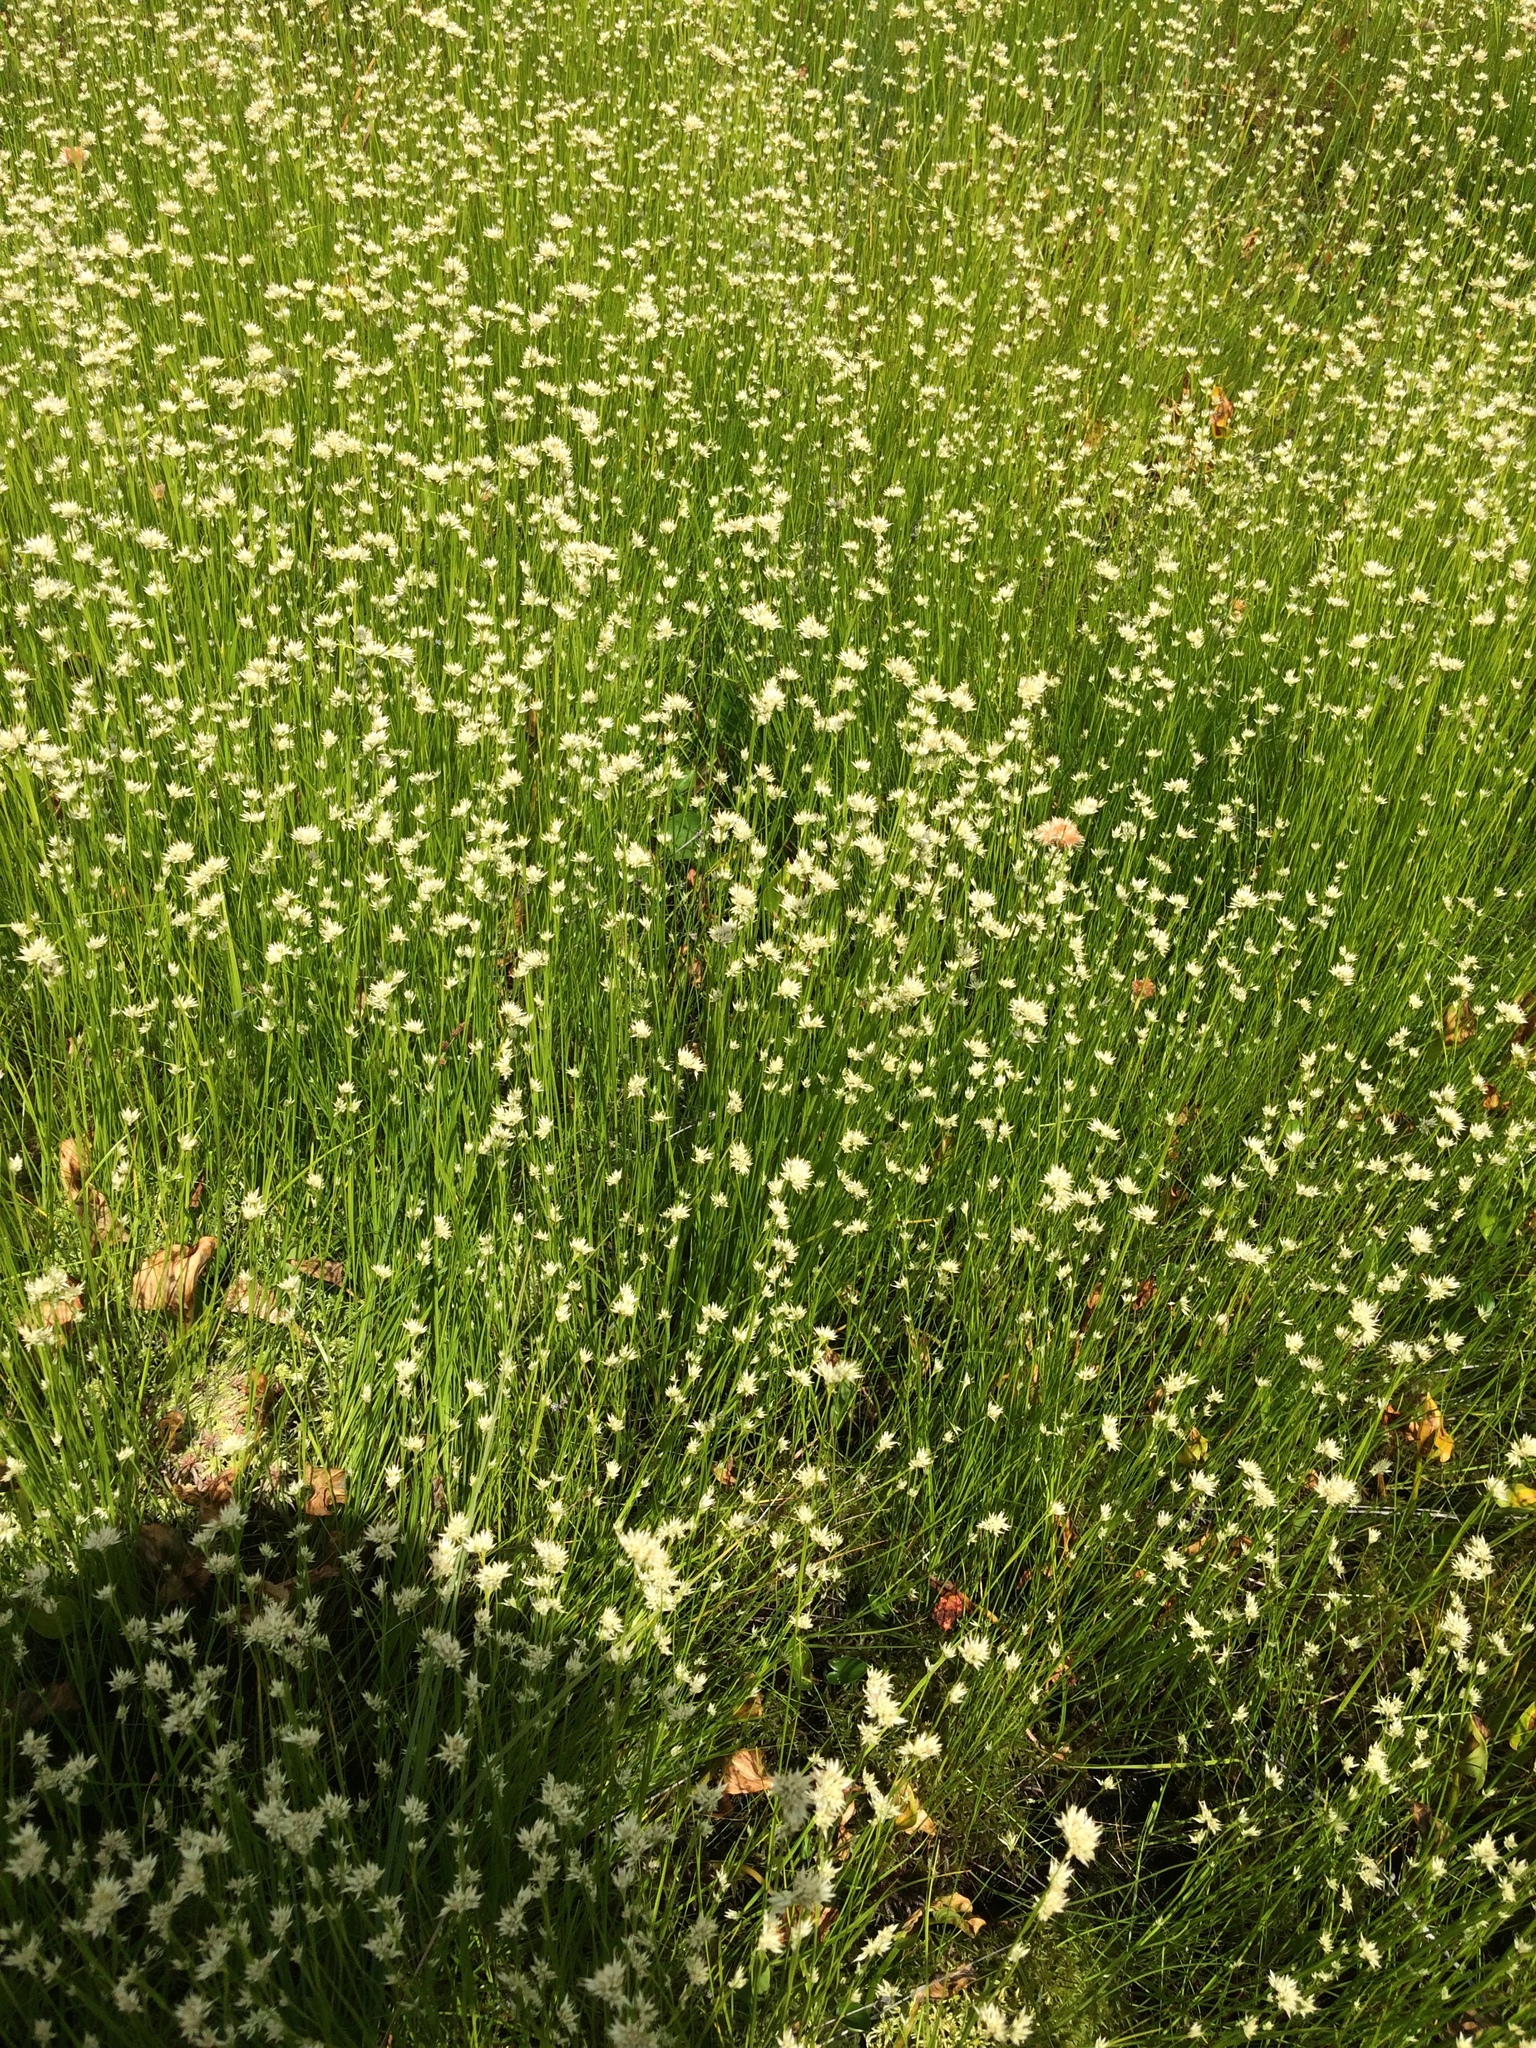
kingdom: Plantae
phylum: Tracheophyta
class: Liliopsida
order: Poales
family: Cyperaceae
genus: Rhynchospora
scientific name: Rhynchospora alba
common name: White beak-sedge
